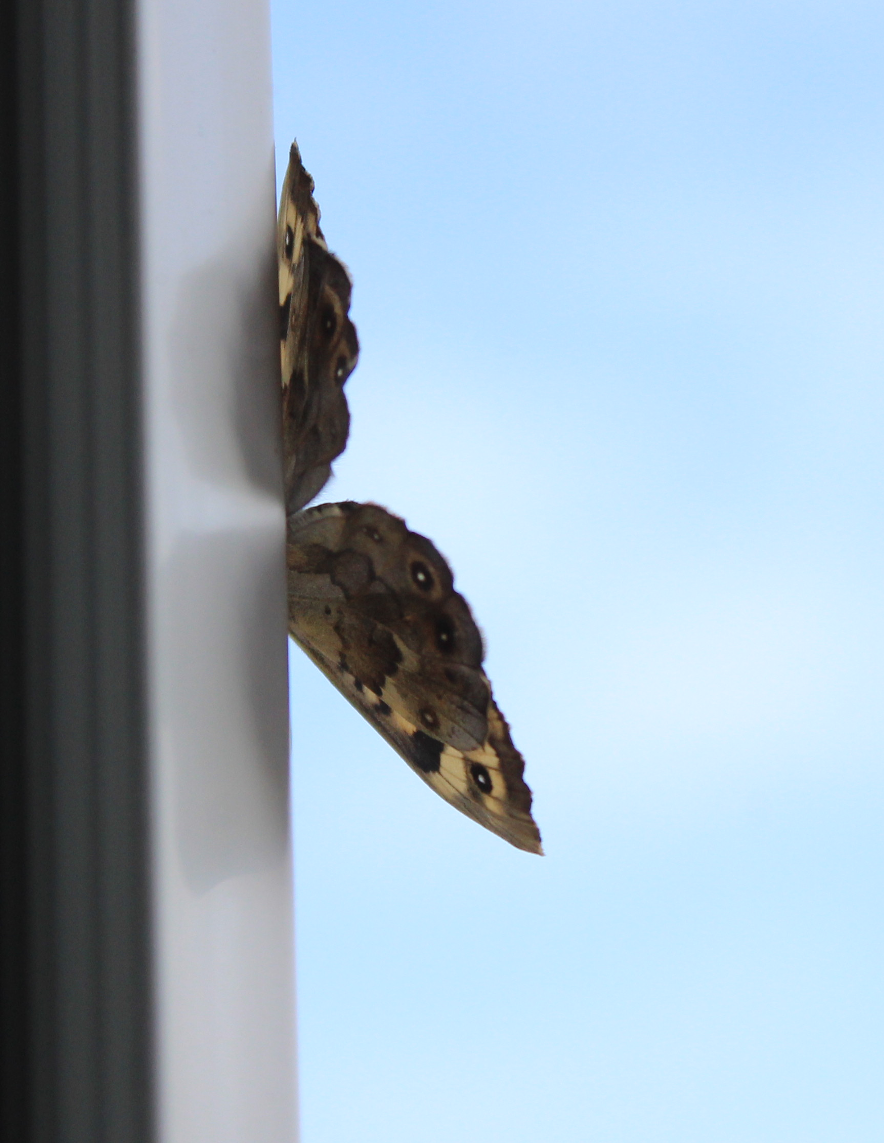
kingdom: Animalia
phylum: Arthropoda
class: Insecta
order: Lepidoptera
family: Nymphalidae
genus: Pararge
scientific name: Pararge aegeria
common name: Speckled wood
